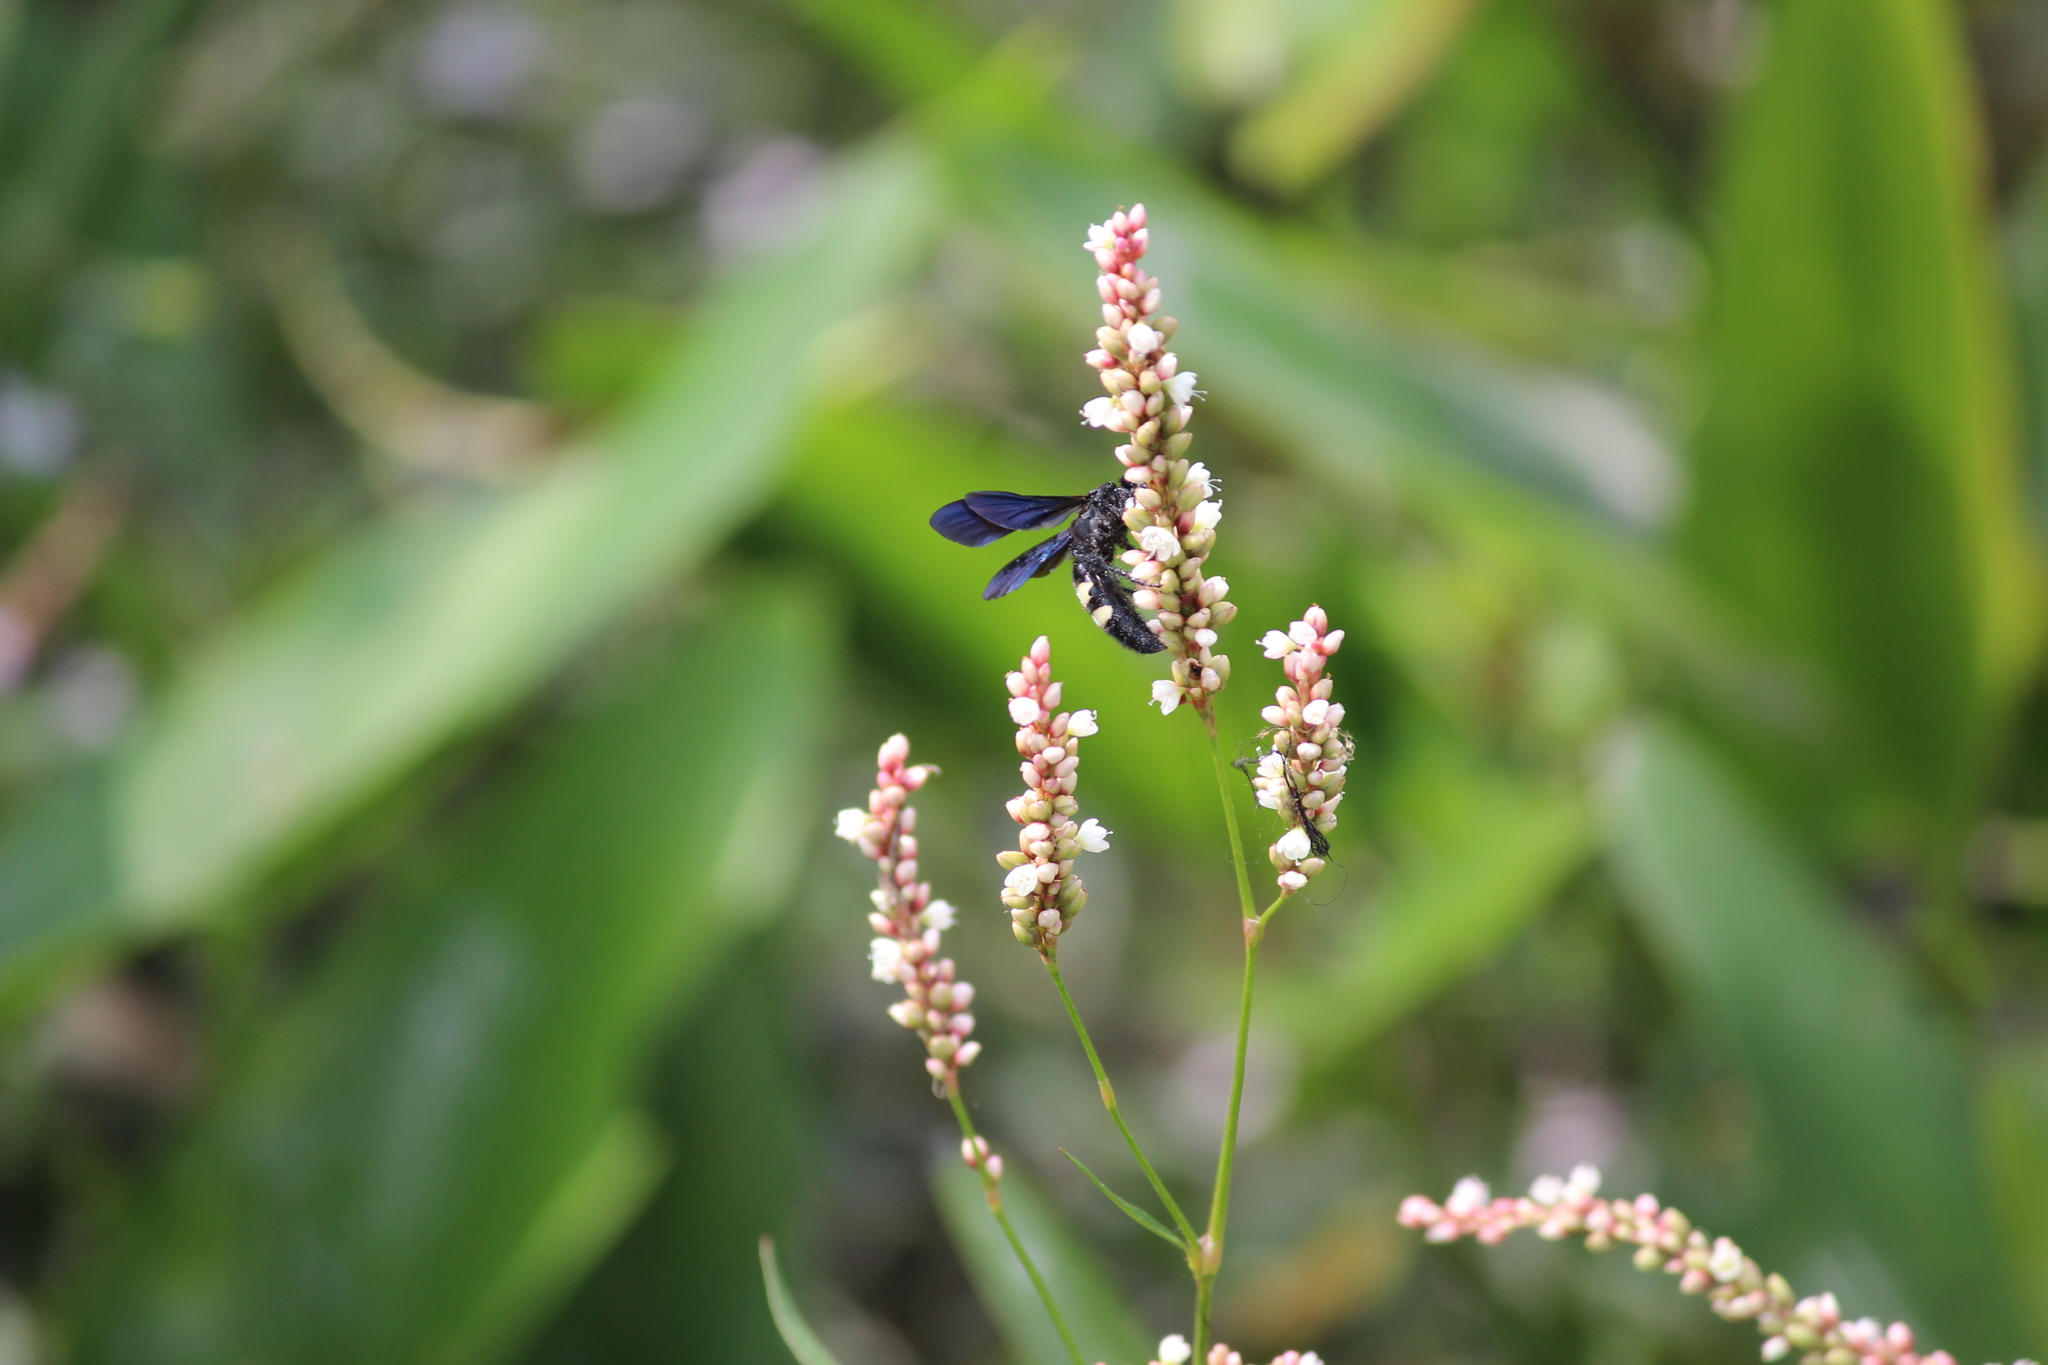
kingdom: Animalia
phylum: Arthropoda
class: Insecta
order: Hymenoptera
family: Scoliidae
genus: Scolia
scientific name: Scolia bicincta
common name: Double-banded scoliid wasp
